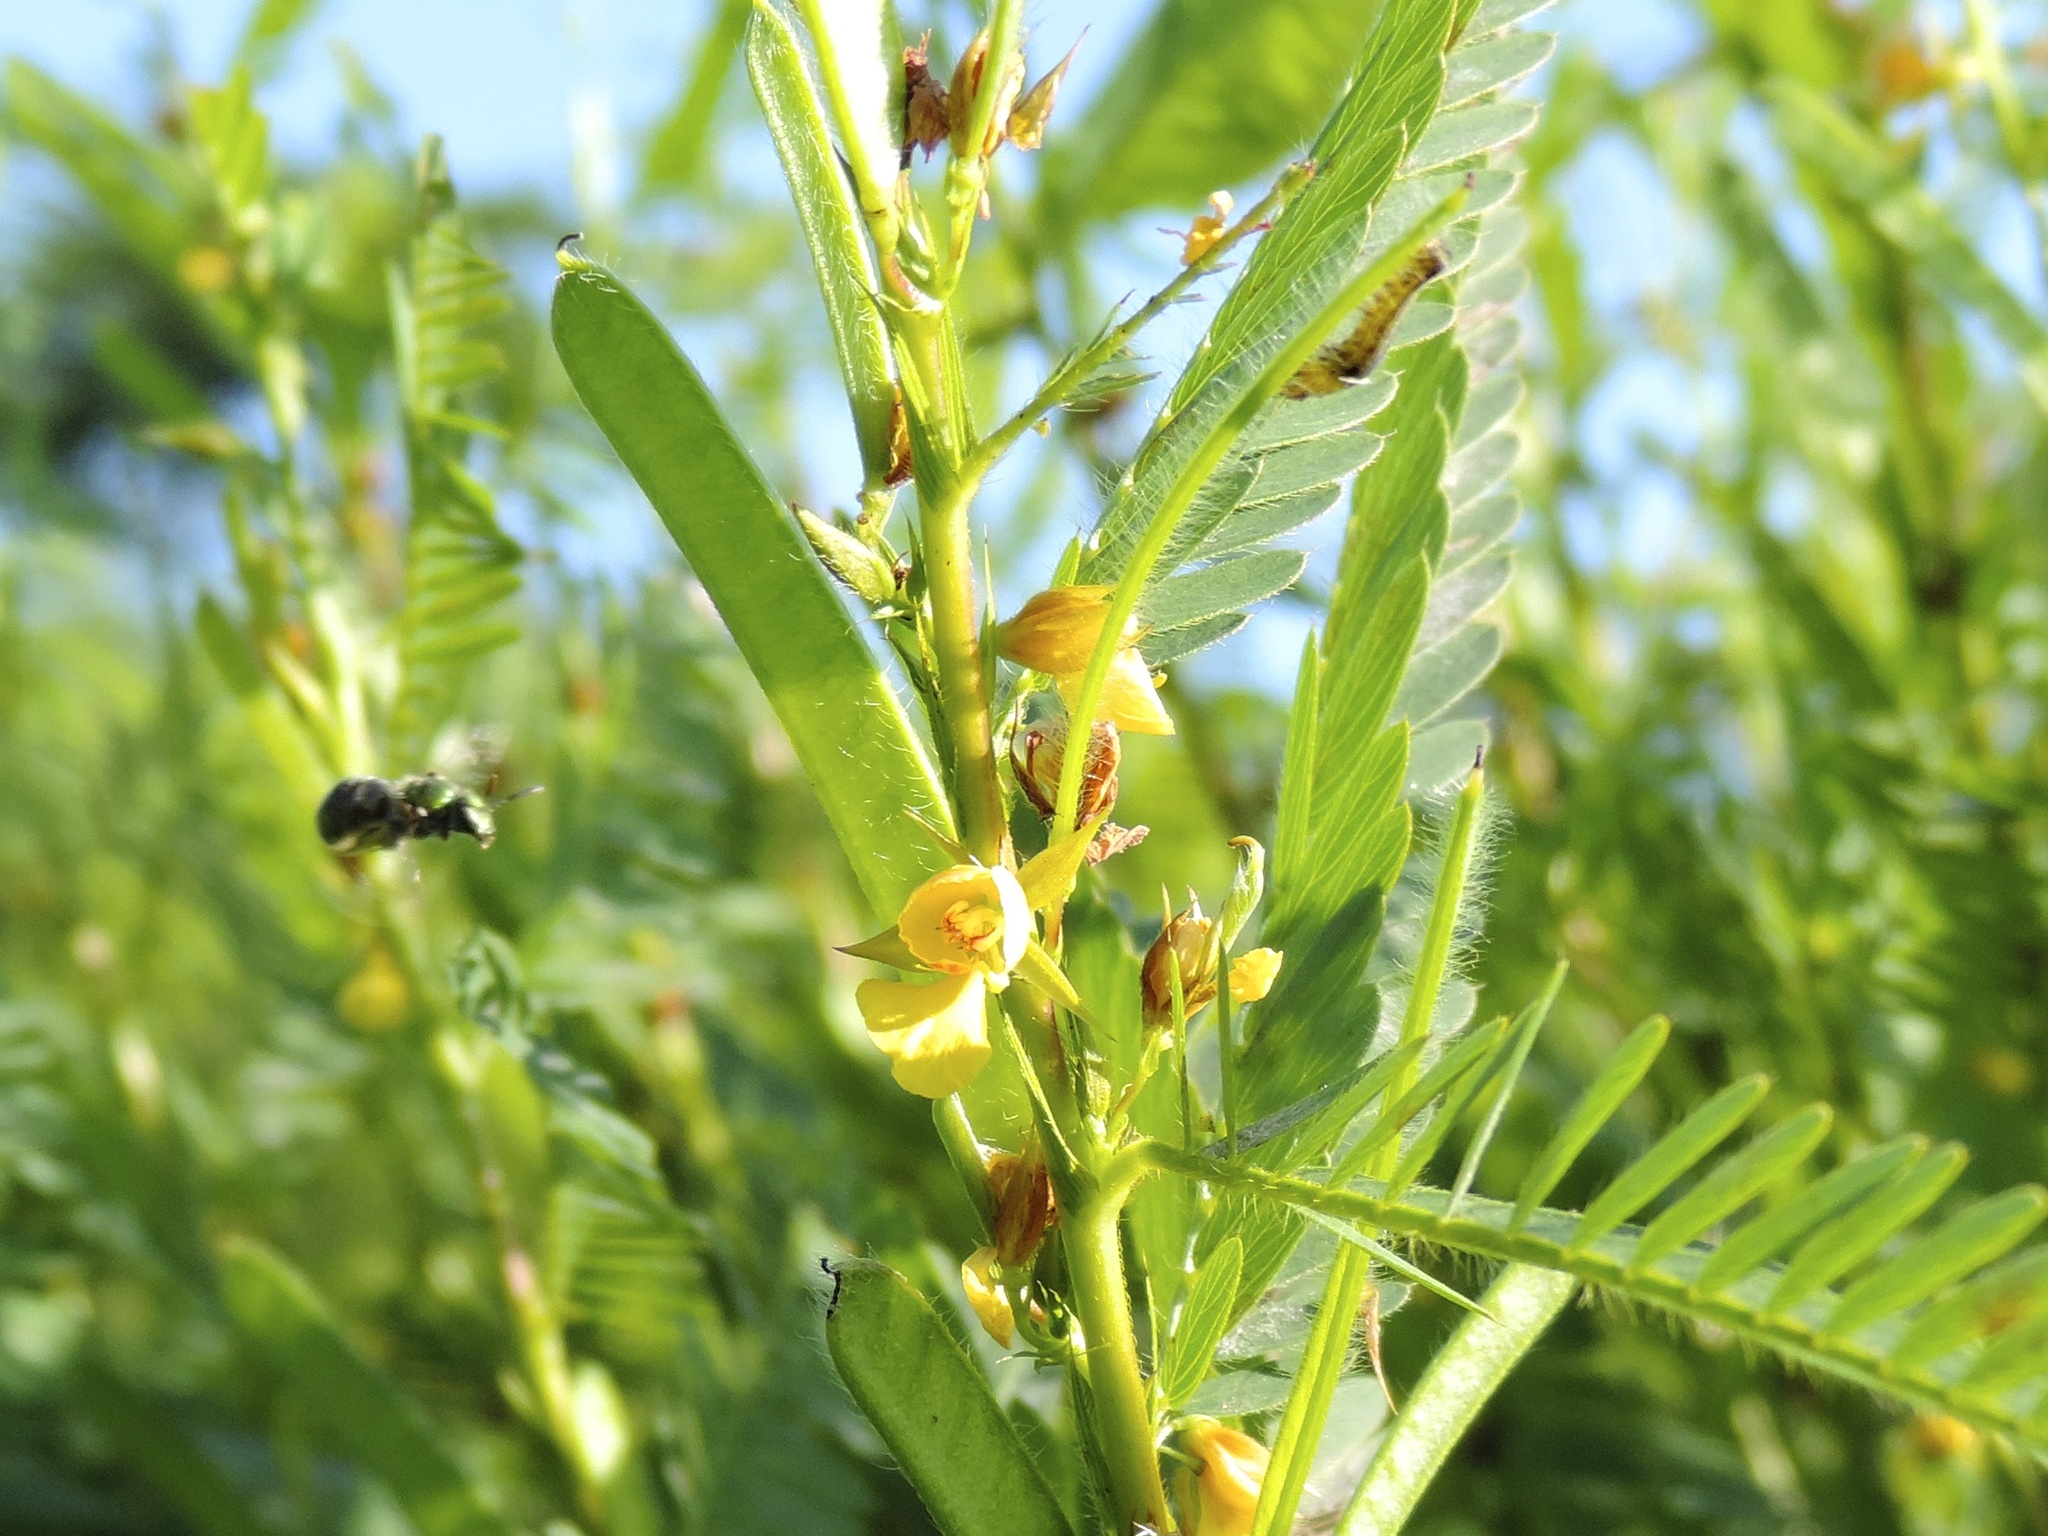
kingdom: Plantae
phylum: Tracheophyta
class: Magnoliopsida
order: Fabales
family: Fabaceae
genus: Chamaecrista
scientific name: Chamaecrista nictitans
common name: Sensitive cassia
